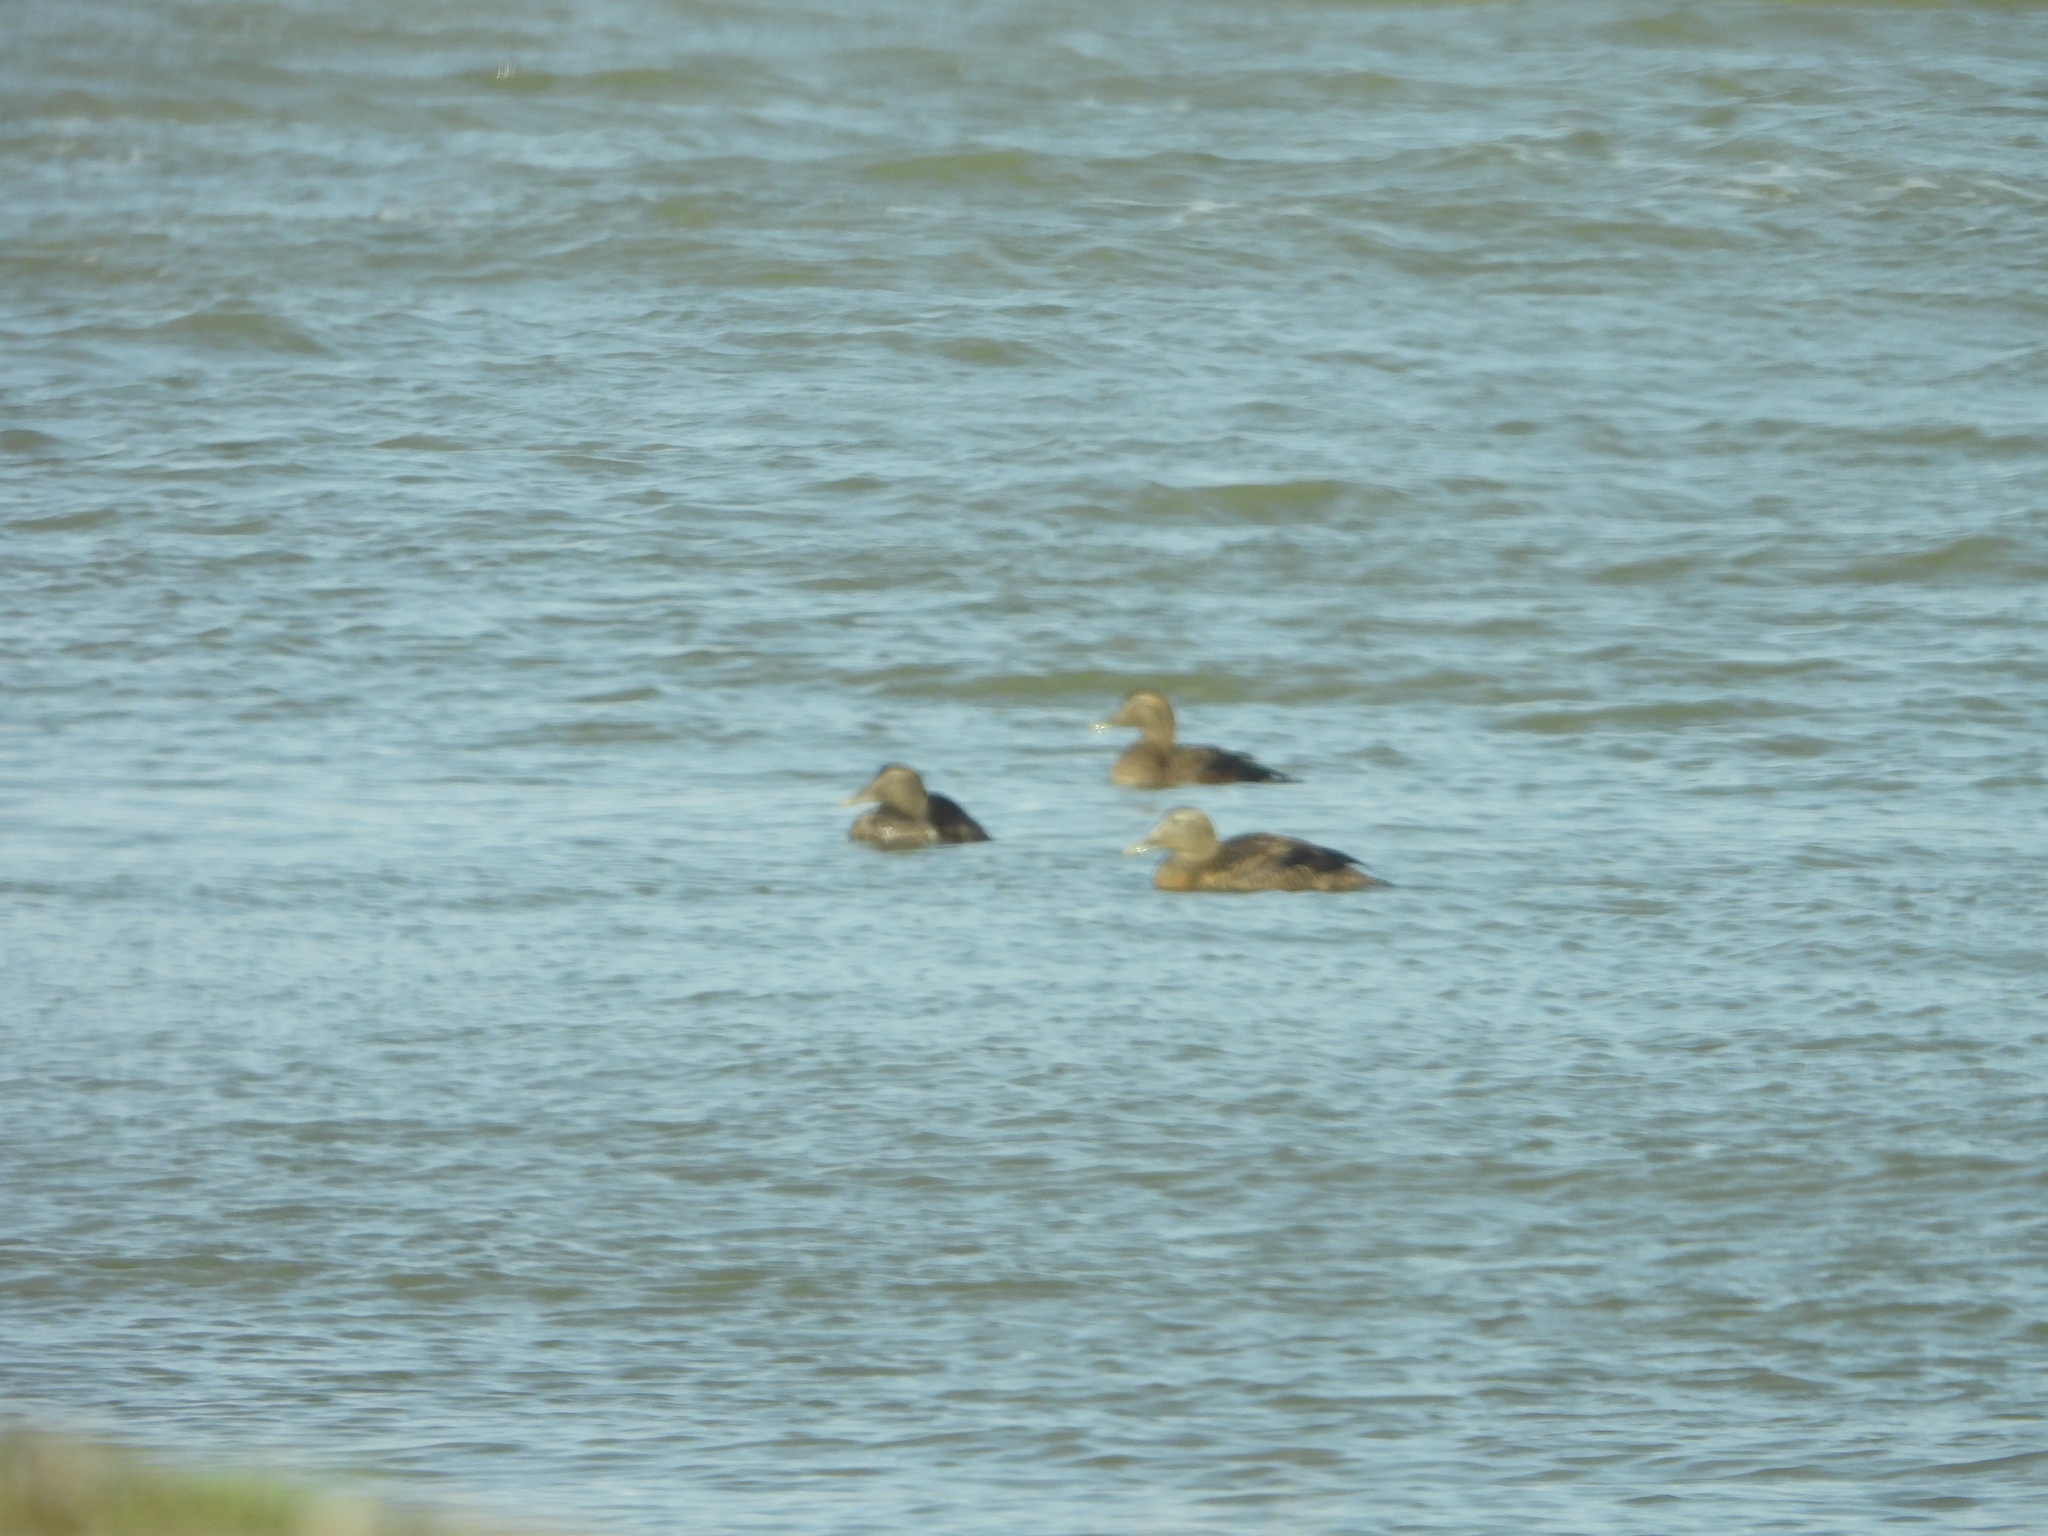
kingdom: Animalia
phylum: Chordata
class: Aves
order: Anseriformes
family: Anatidae
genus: Somateria
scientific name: Somateria mollissima
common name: Common eider
